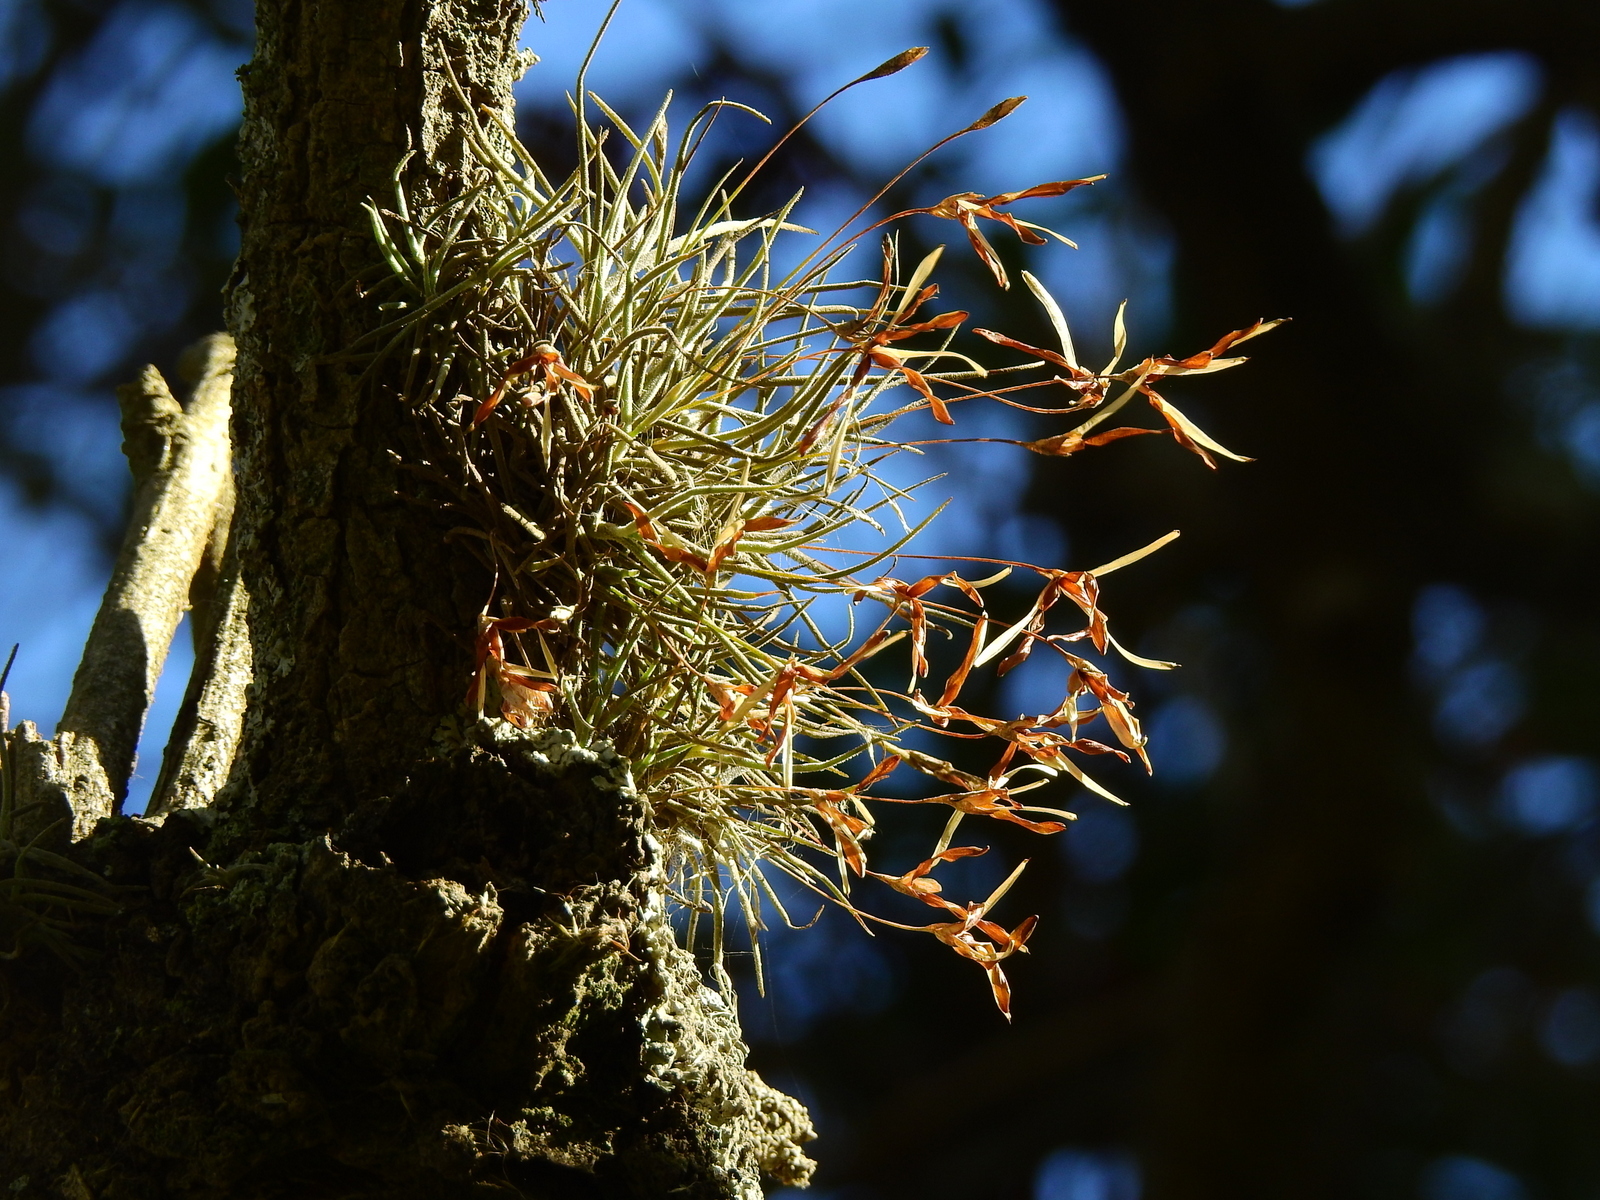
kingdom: Plantae
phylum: Tracheophyta
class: Liliopsida
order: Poales
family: Bromeliaceae
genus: Tillandsia
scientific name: Tillandsia recurvata
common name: Small ballmoss
